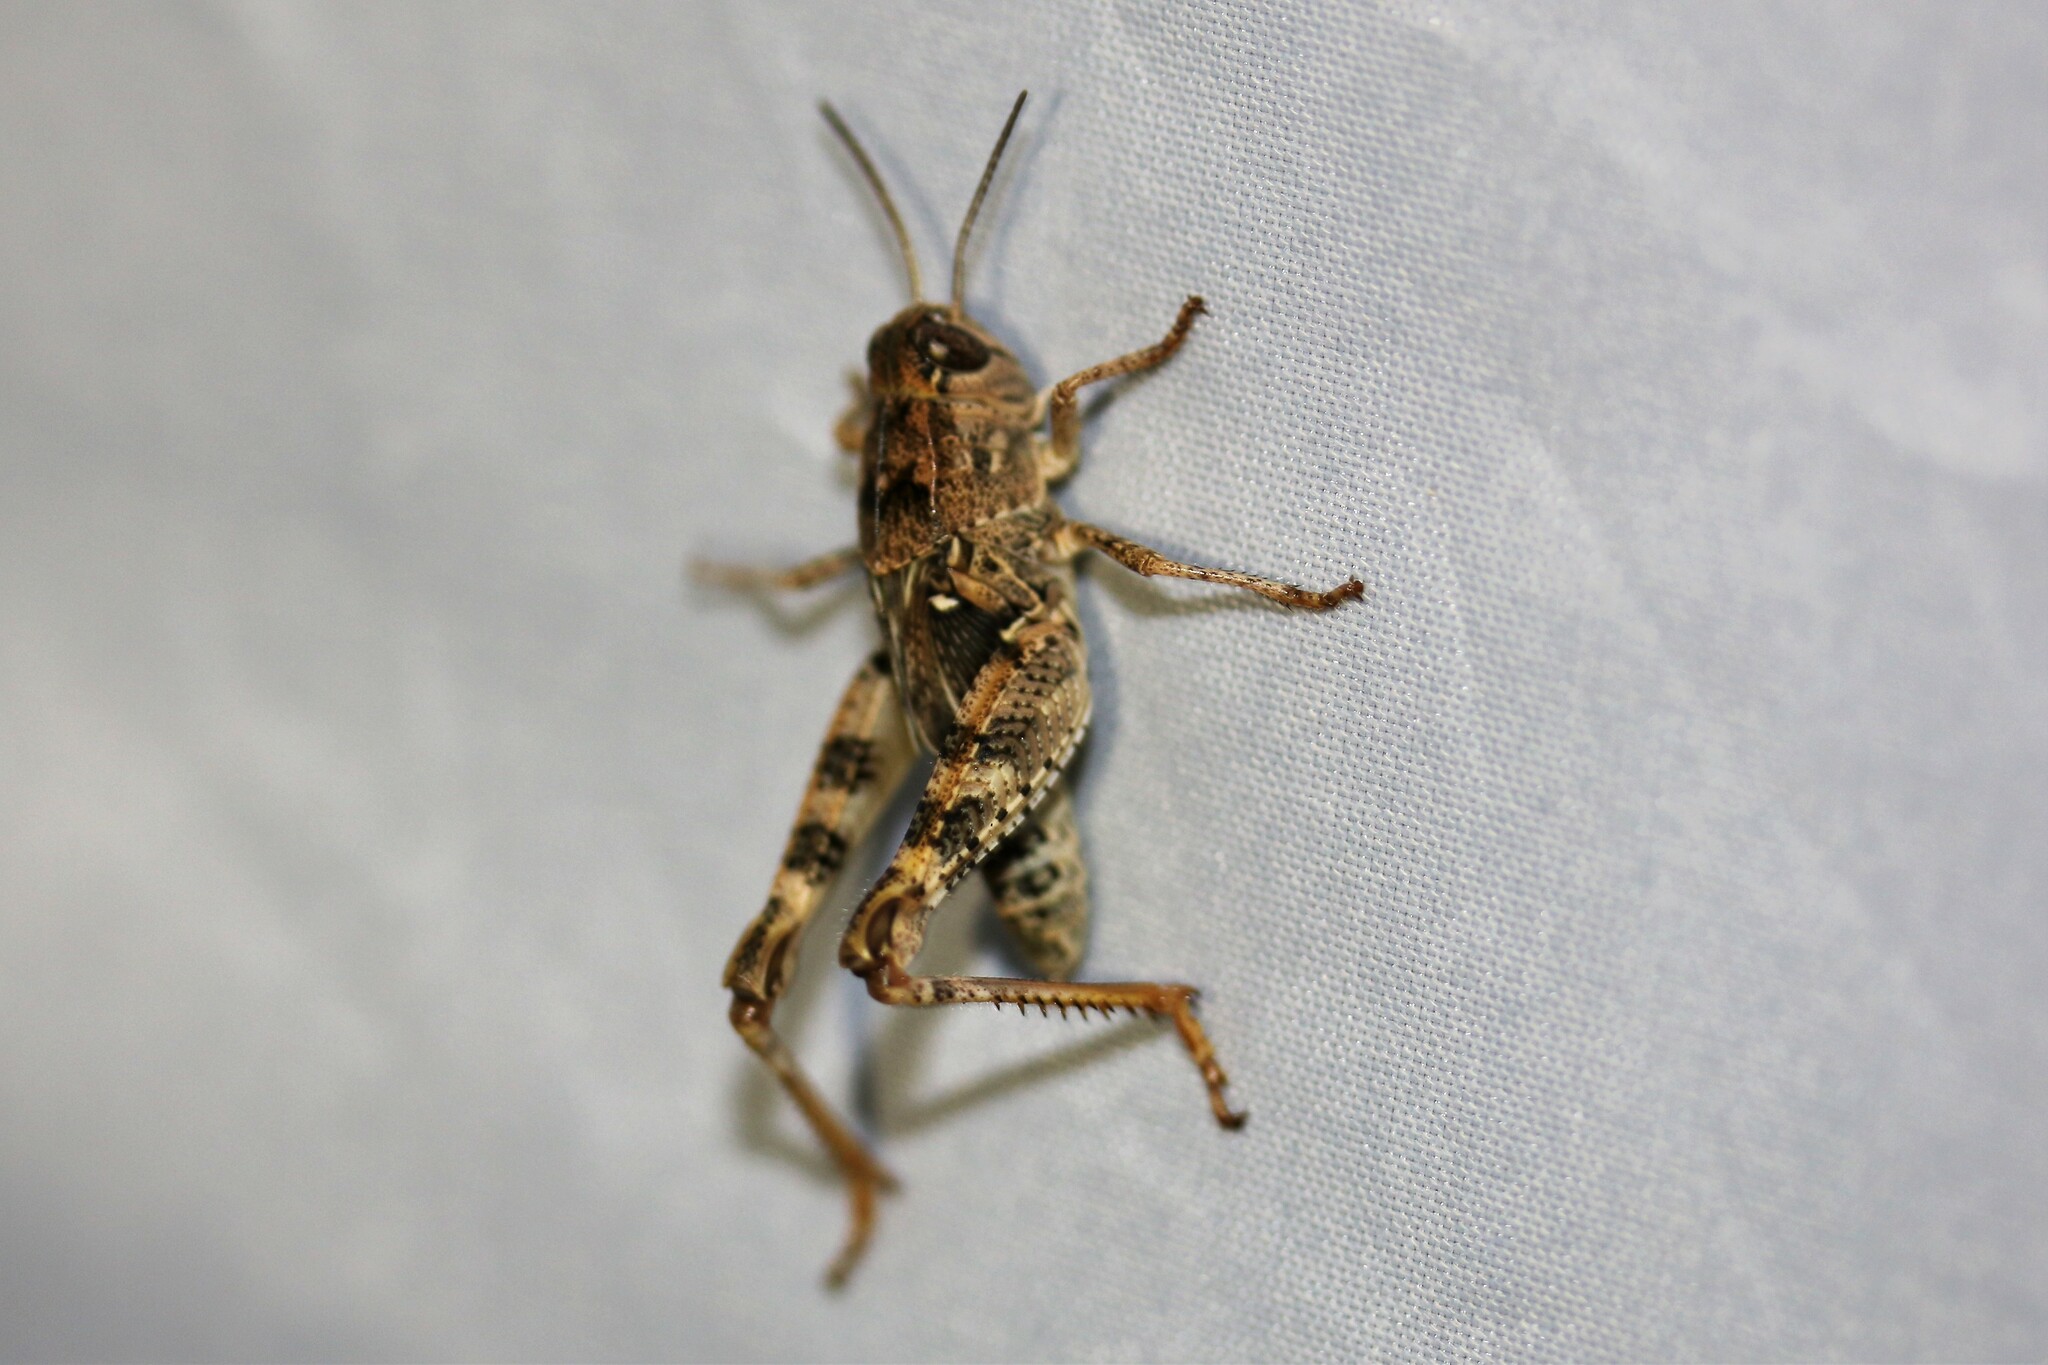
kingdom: Animalia
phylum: Arthropoda
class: Insecta
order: Orthoptera
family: Acrididae
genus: Calliptamus
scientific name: Calliptamus italicus
